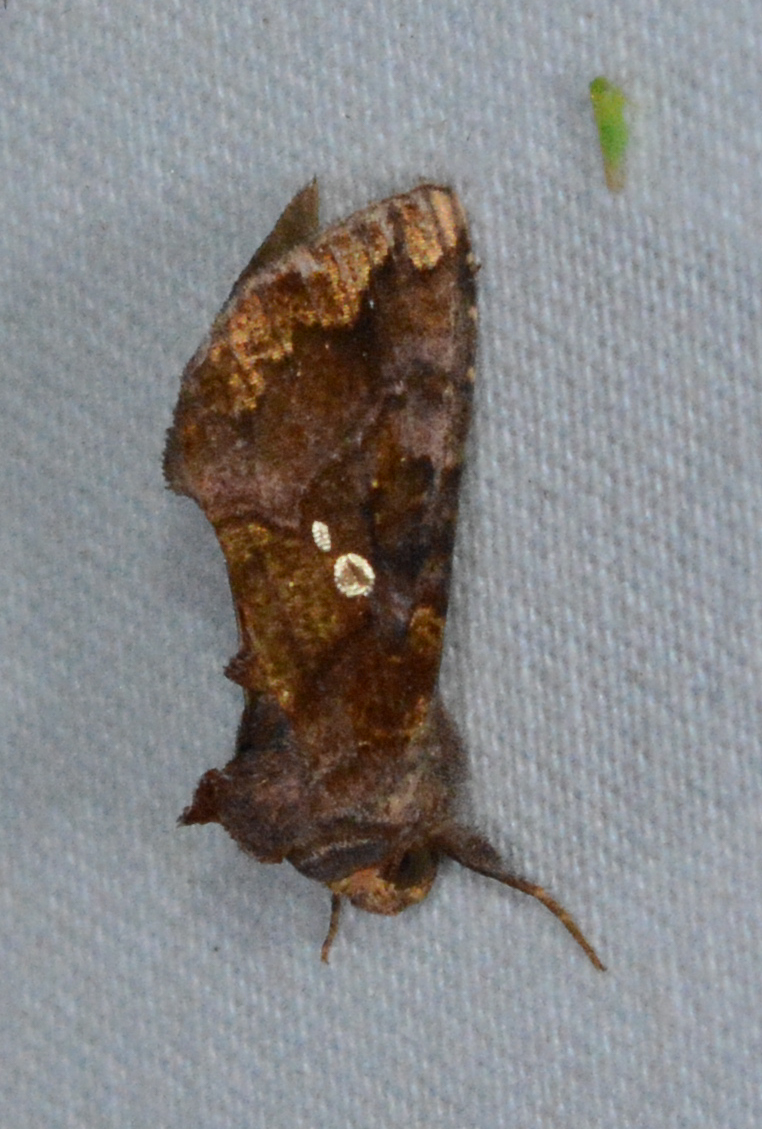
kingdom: Animalia
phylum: Arthropoda
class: Insecta
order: Lepidoptera
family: Noctuidae
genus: Argyrogramma
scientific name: Argyrogramma verruca
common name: Golden looper moth
